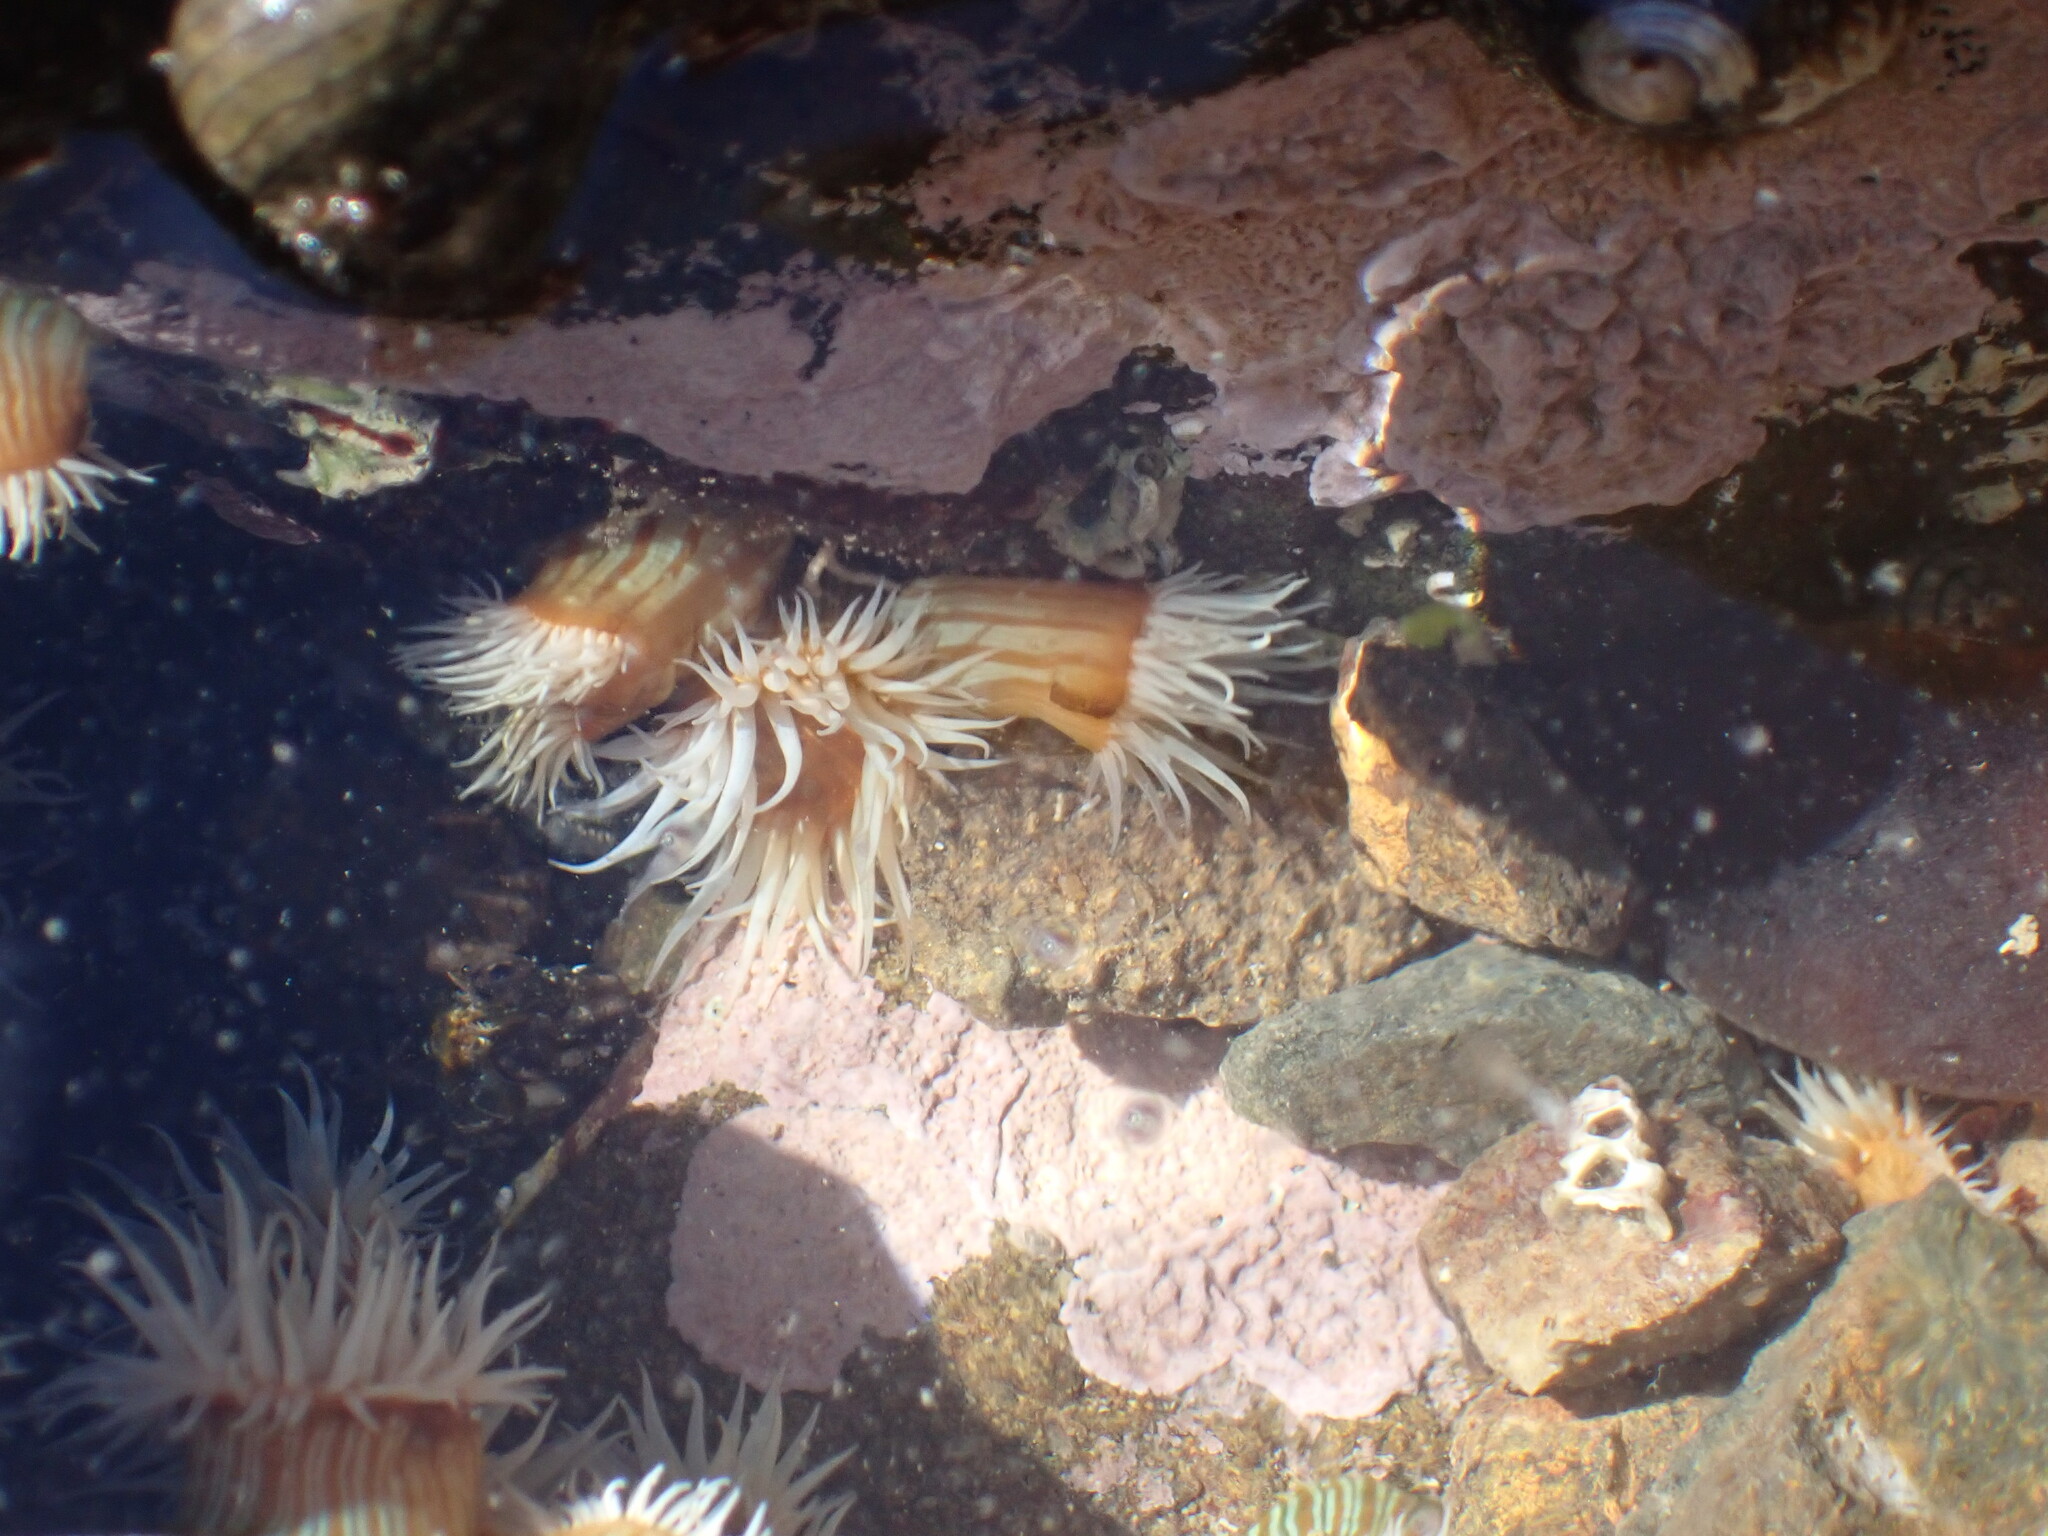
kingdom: Animalia
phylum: Cnidaria
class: Anthozoa
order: Actiniaria
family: Sagartiidae
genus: Anthothoe
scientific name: Anthothoe albocincta
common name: Orange striped anemone
